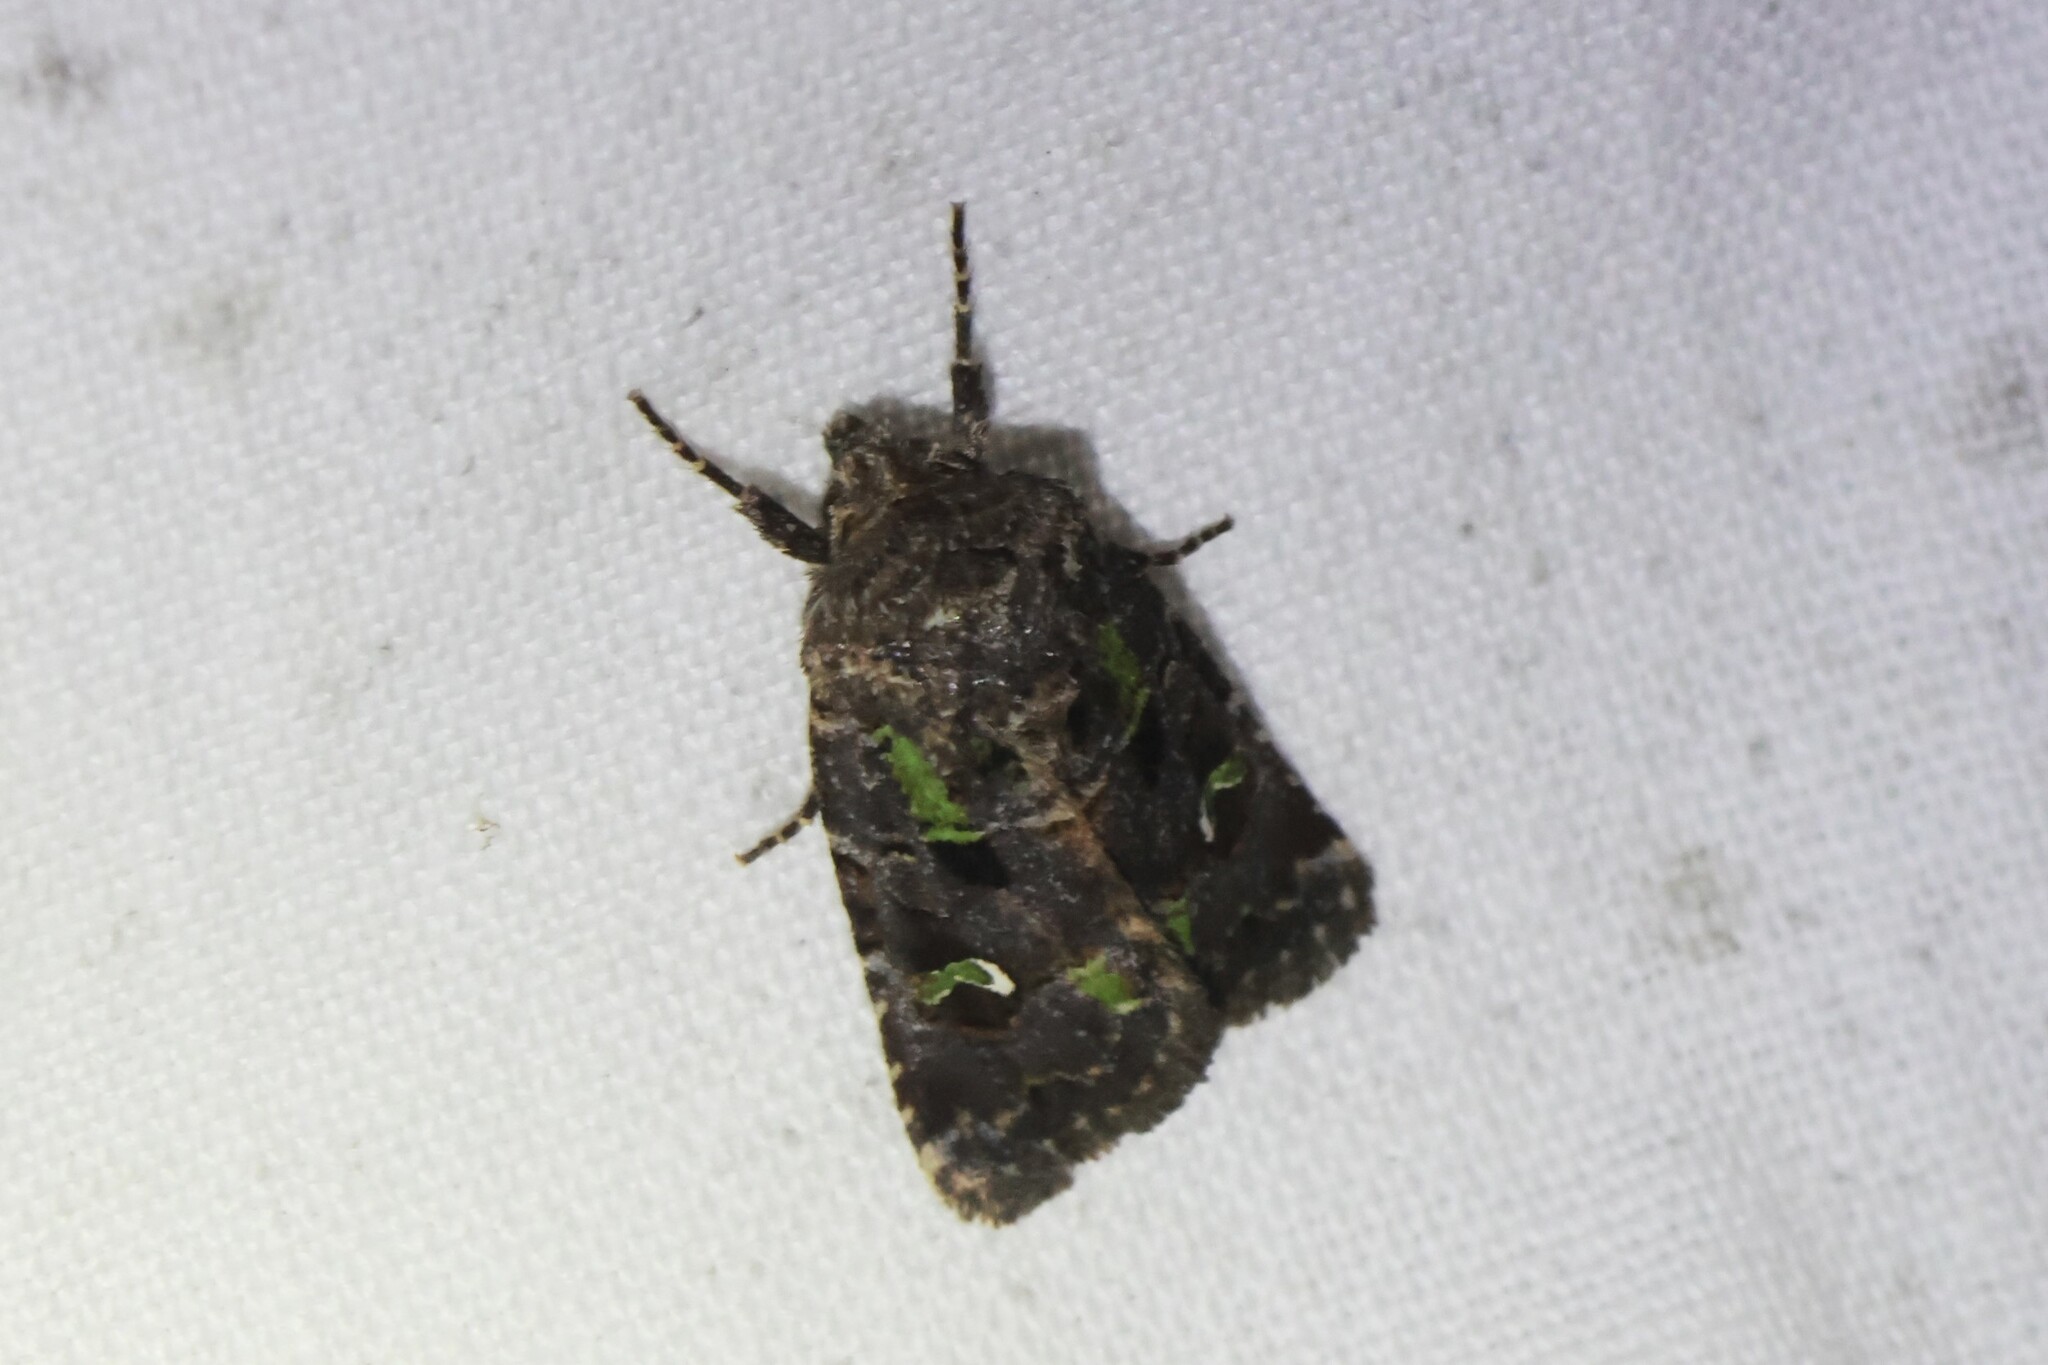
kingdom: Animalia
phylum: Arthropoda
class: Insecta
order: Lepidoptera
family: Noctuidae
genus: Lacinipolia
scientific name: Lacinipolia renigera
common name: Kidney-spotted minor
